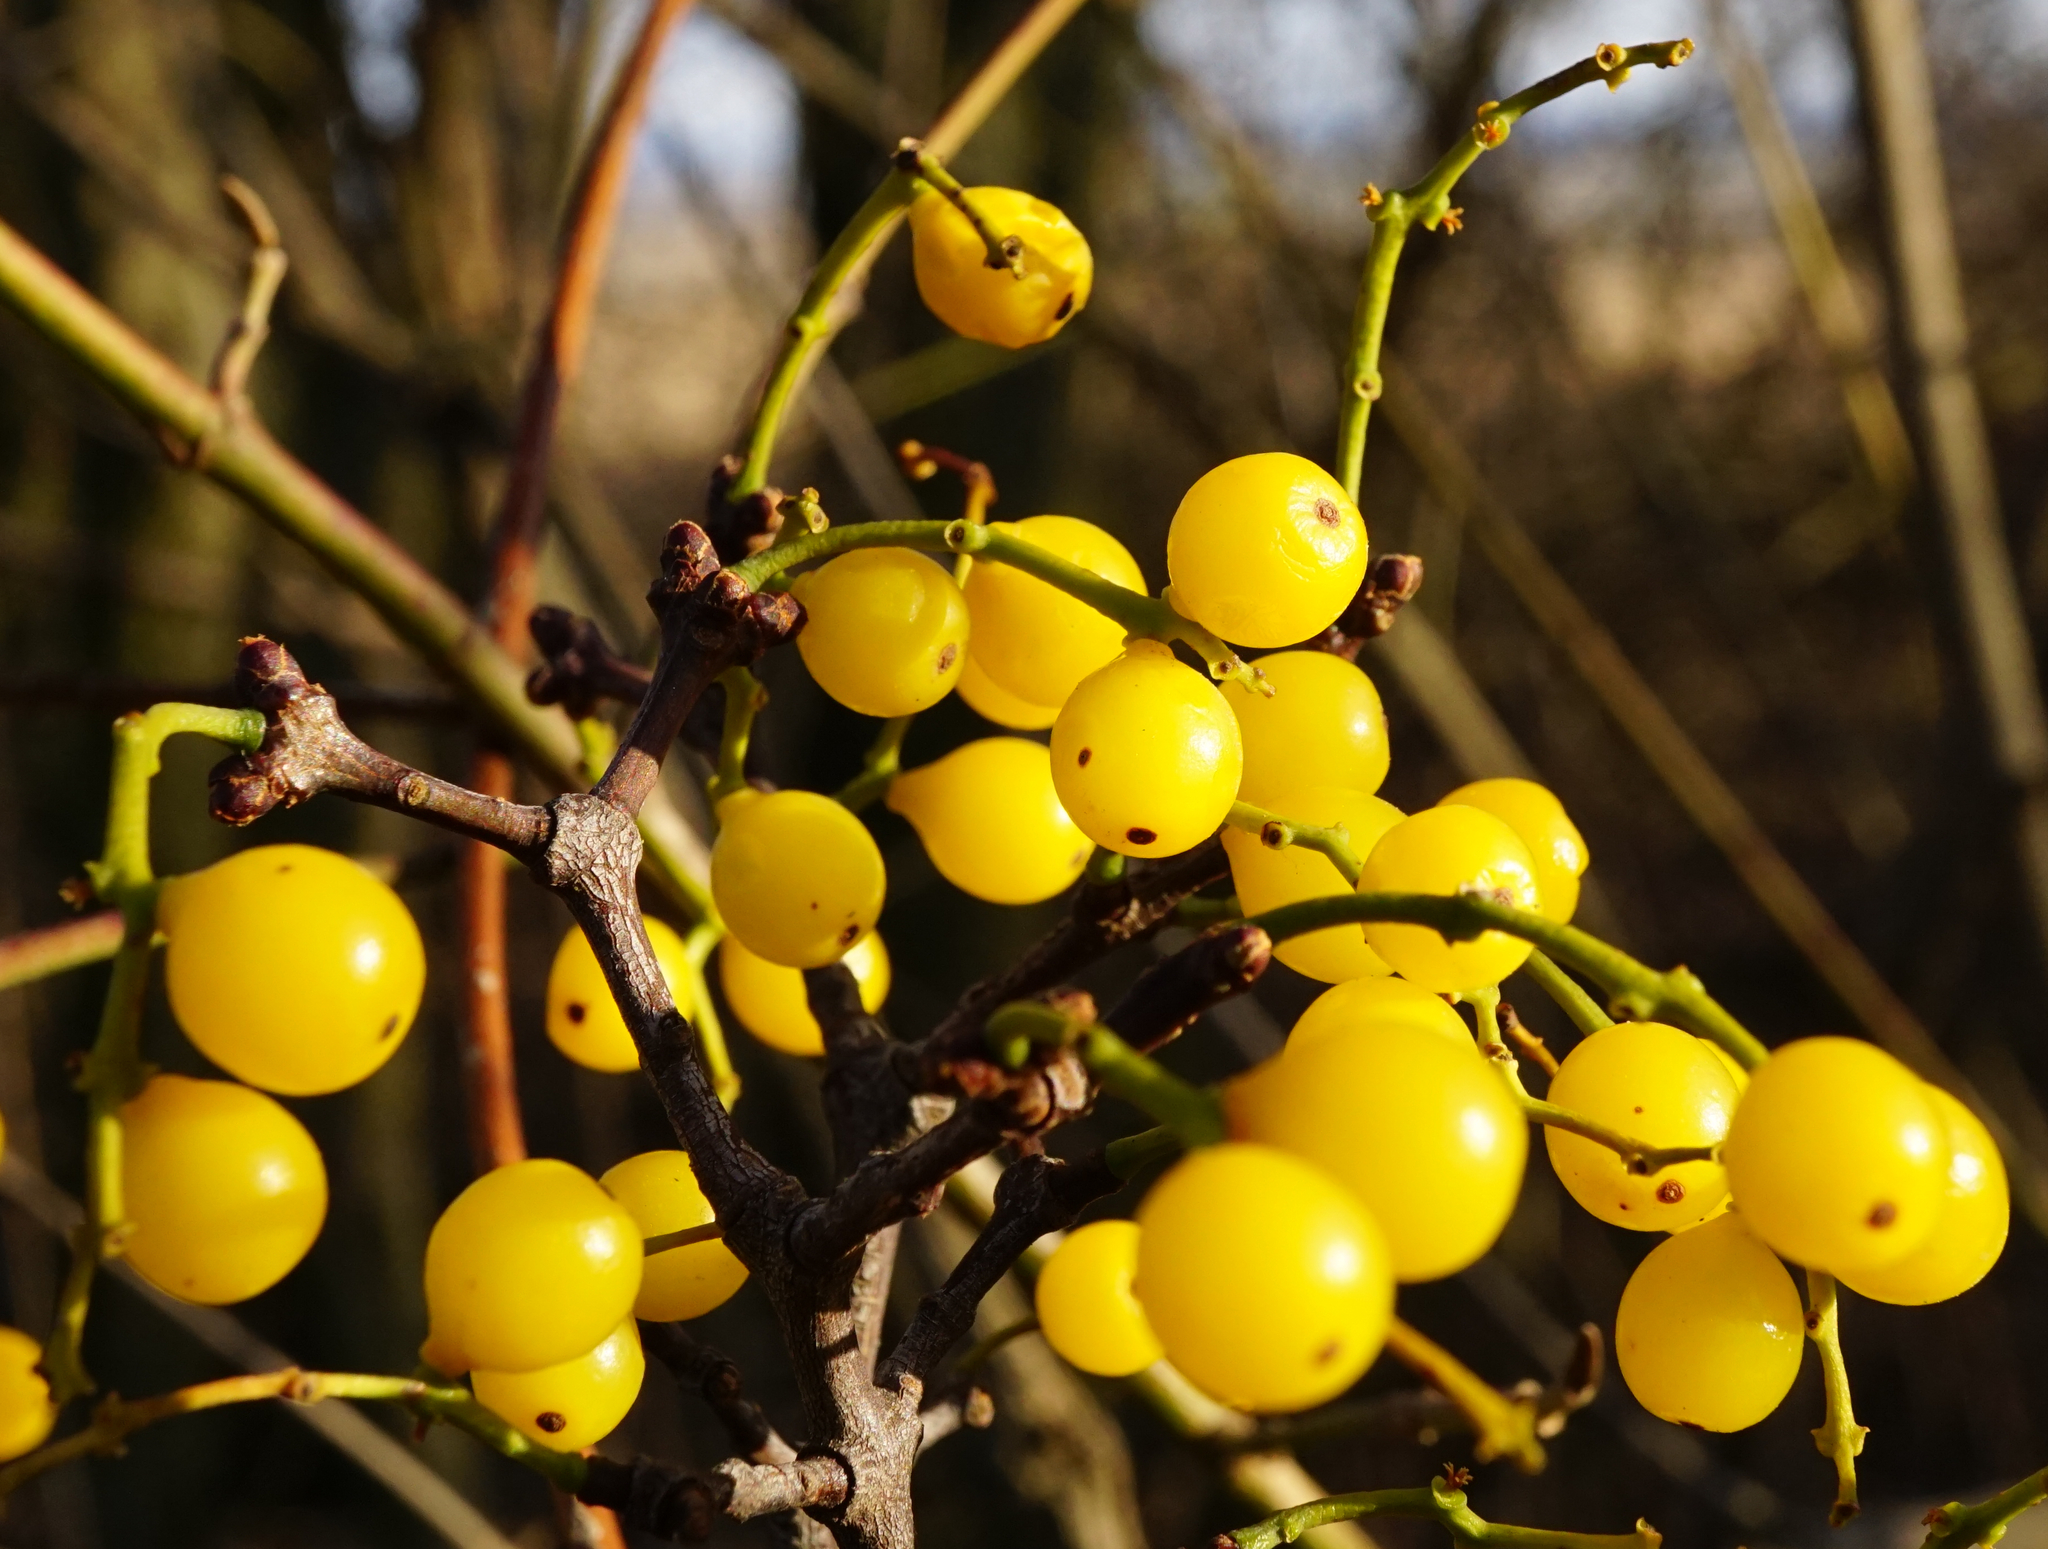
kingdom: Plantae
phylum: Tracheophyta
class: Magnoliopsida
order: Santalales
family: Loranthaceae
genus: Loranthus
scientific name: Loranthus europaeus
